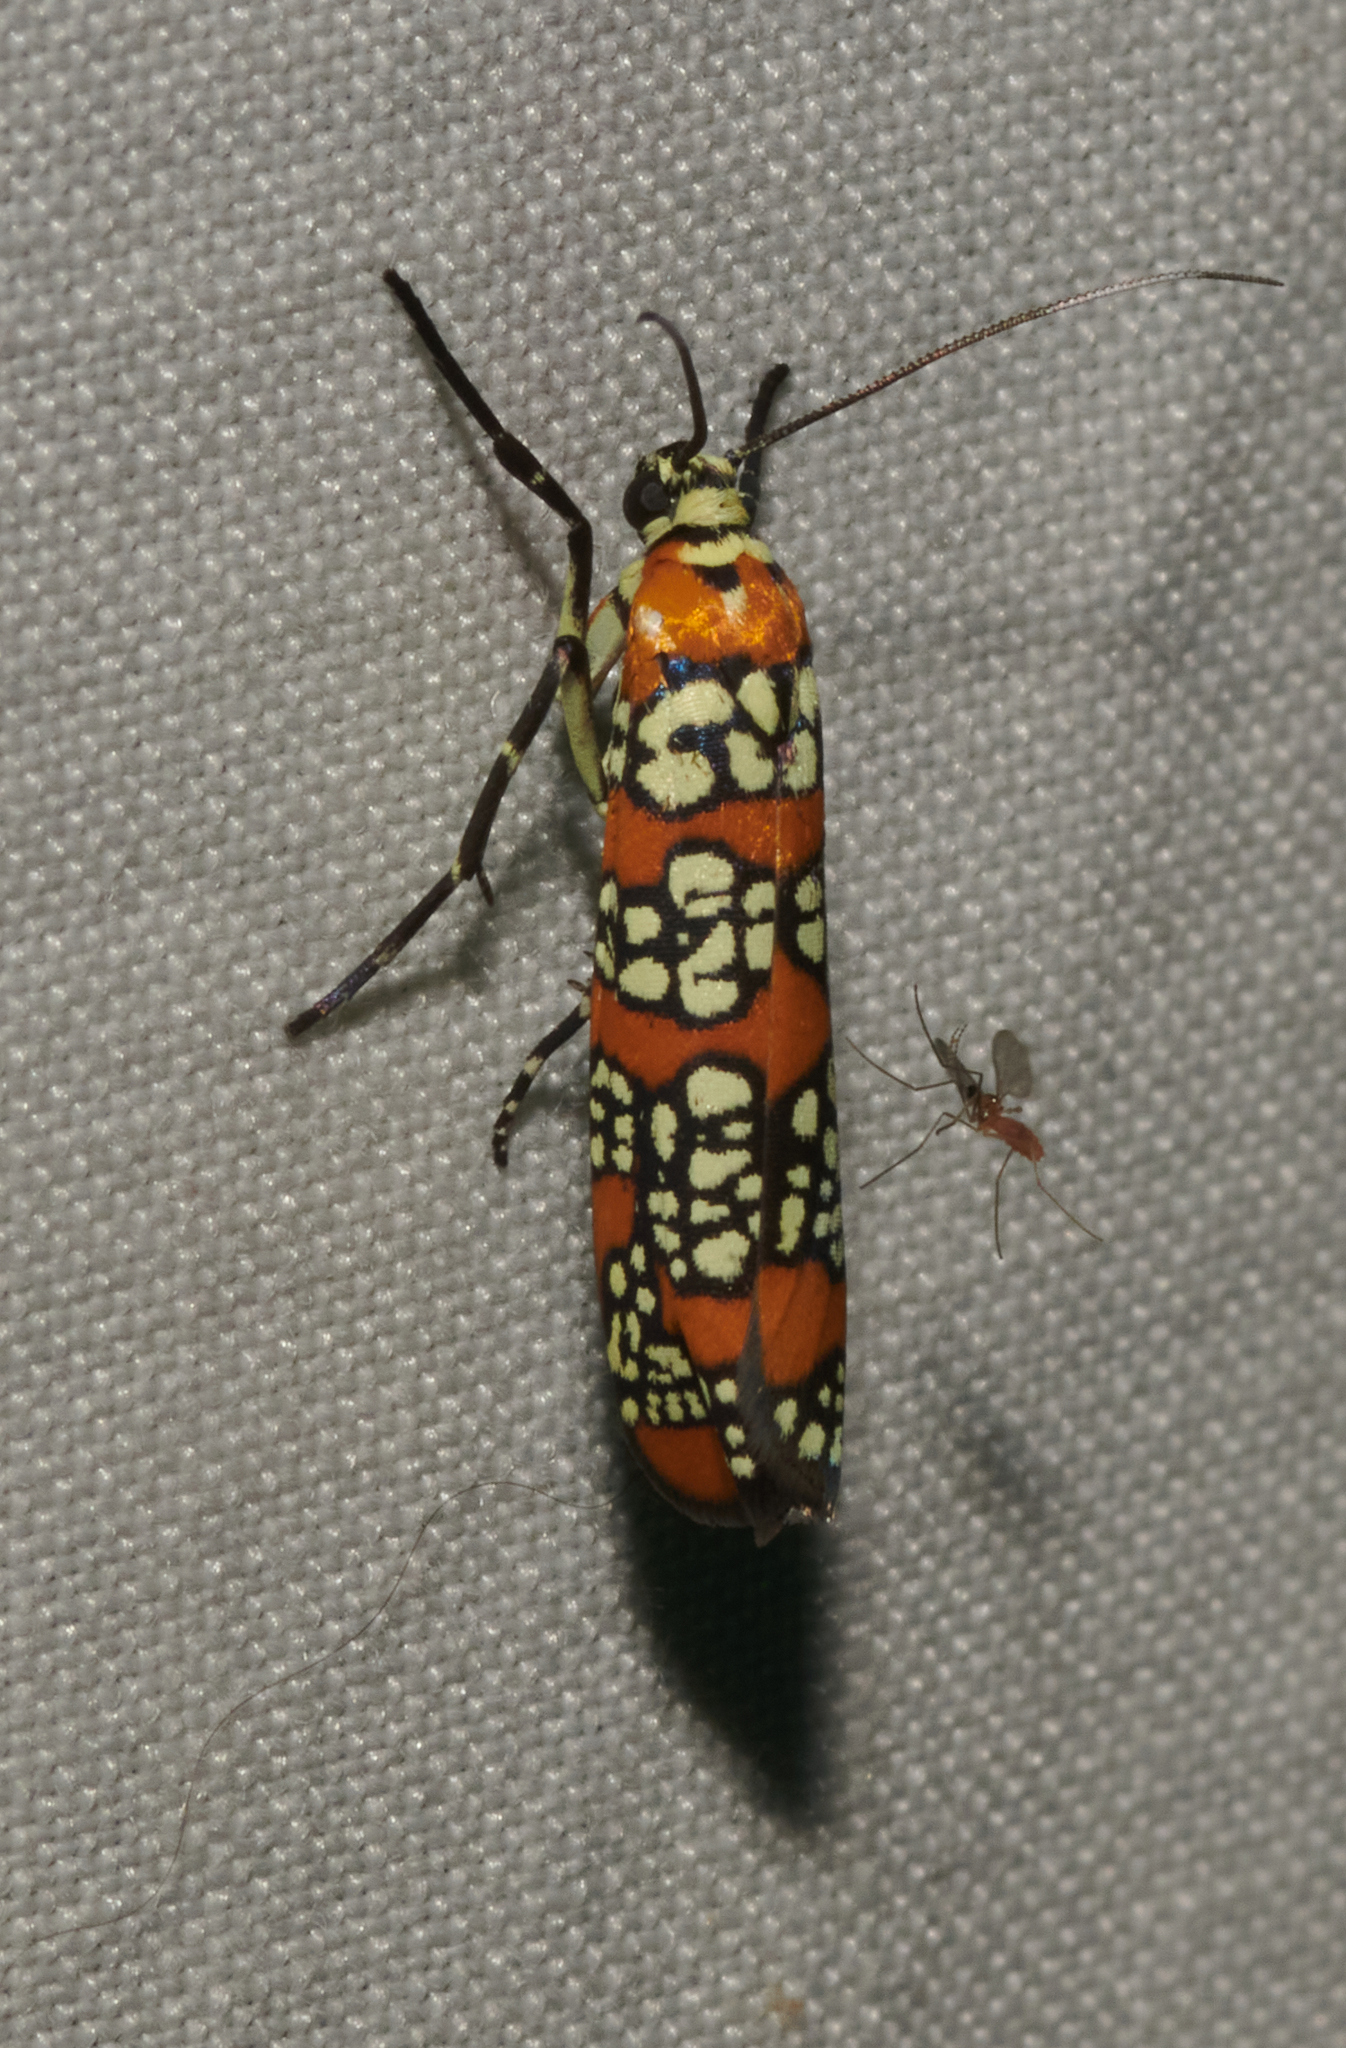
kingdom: Animalia
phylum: Arthropoda
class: Insecta
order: Lepidoptera
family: Attevidae
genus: Atteva
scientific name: Atteva punctella
